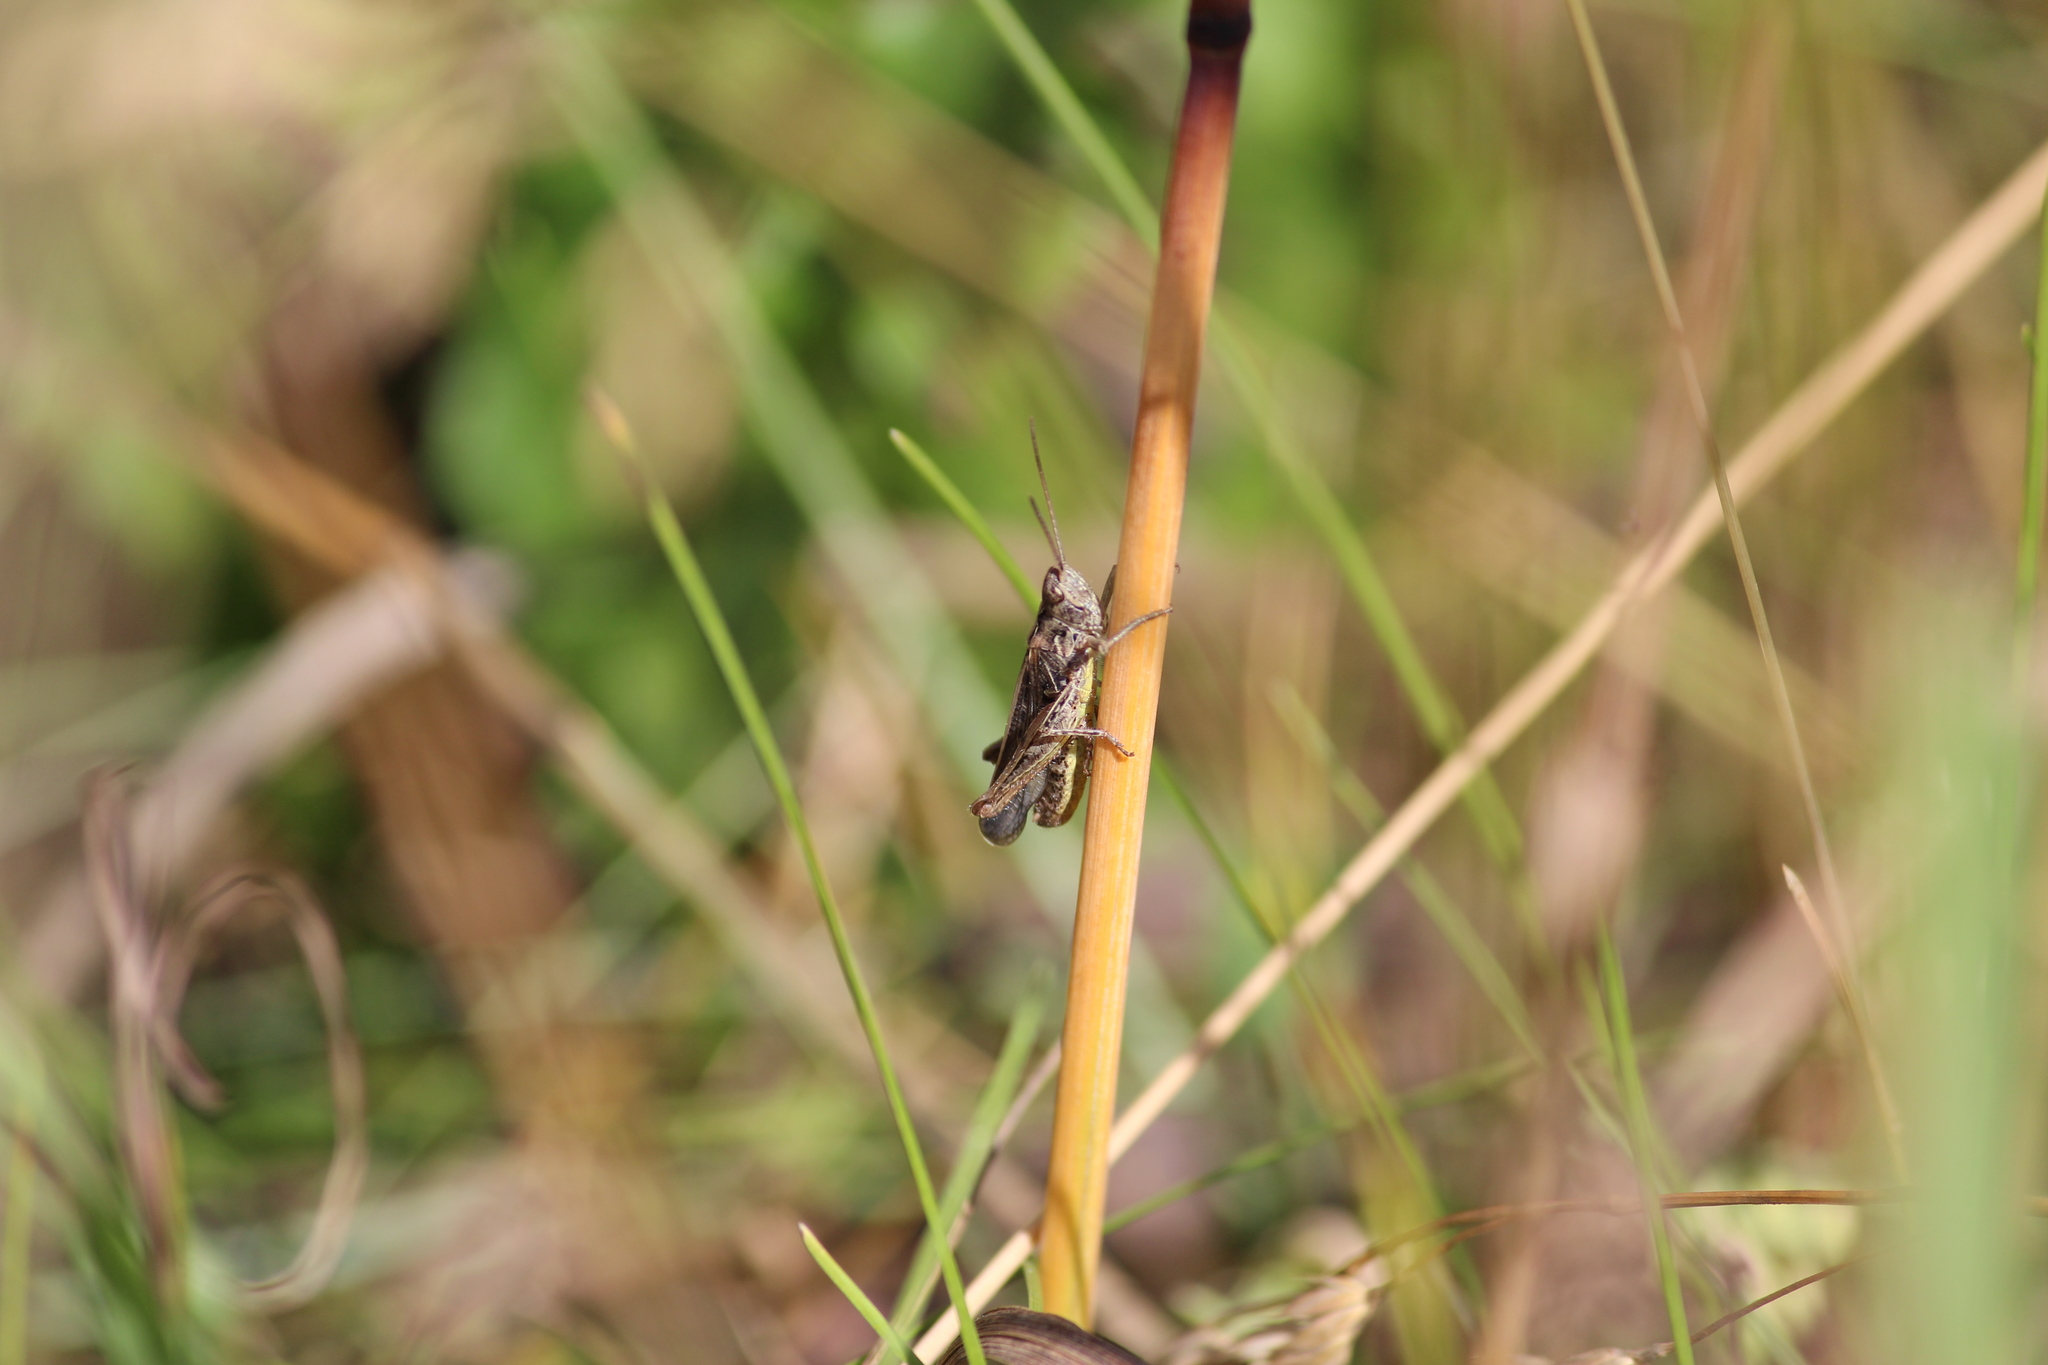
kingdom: Animalia
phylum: Arthropoda
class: Insecta
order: Orthoptera
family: Acrididae
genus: Chorthippus
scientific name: Chorthippus biguttulus
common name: Bow-winged grasshopper
